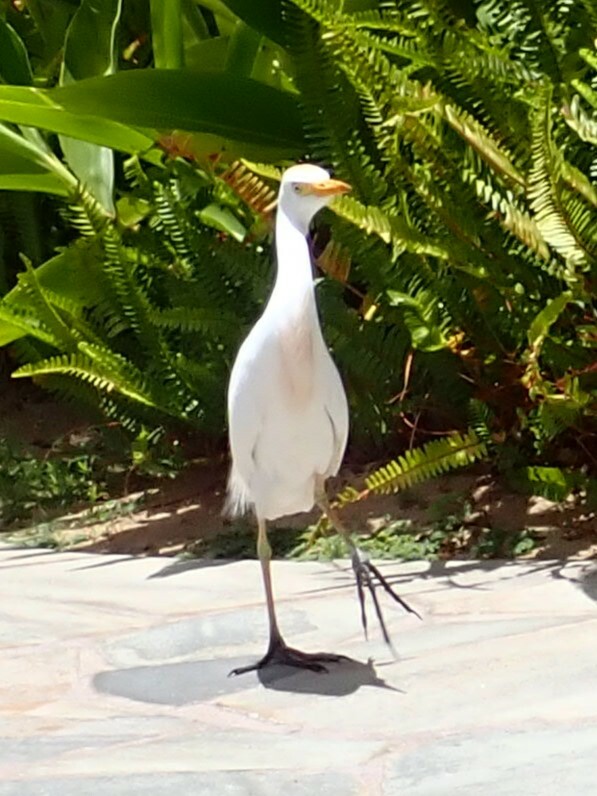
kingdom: Animalia
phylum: Chordata
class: Aves
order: Pelecaniformes
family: Ardeidae
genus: Bubulcus
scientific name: Bubulcus ibis
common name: Cattle egret
